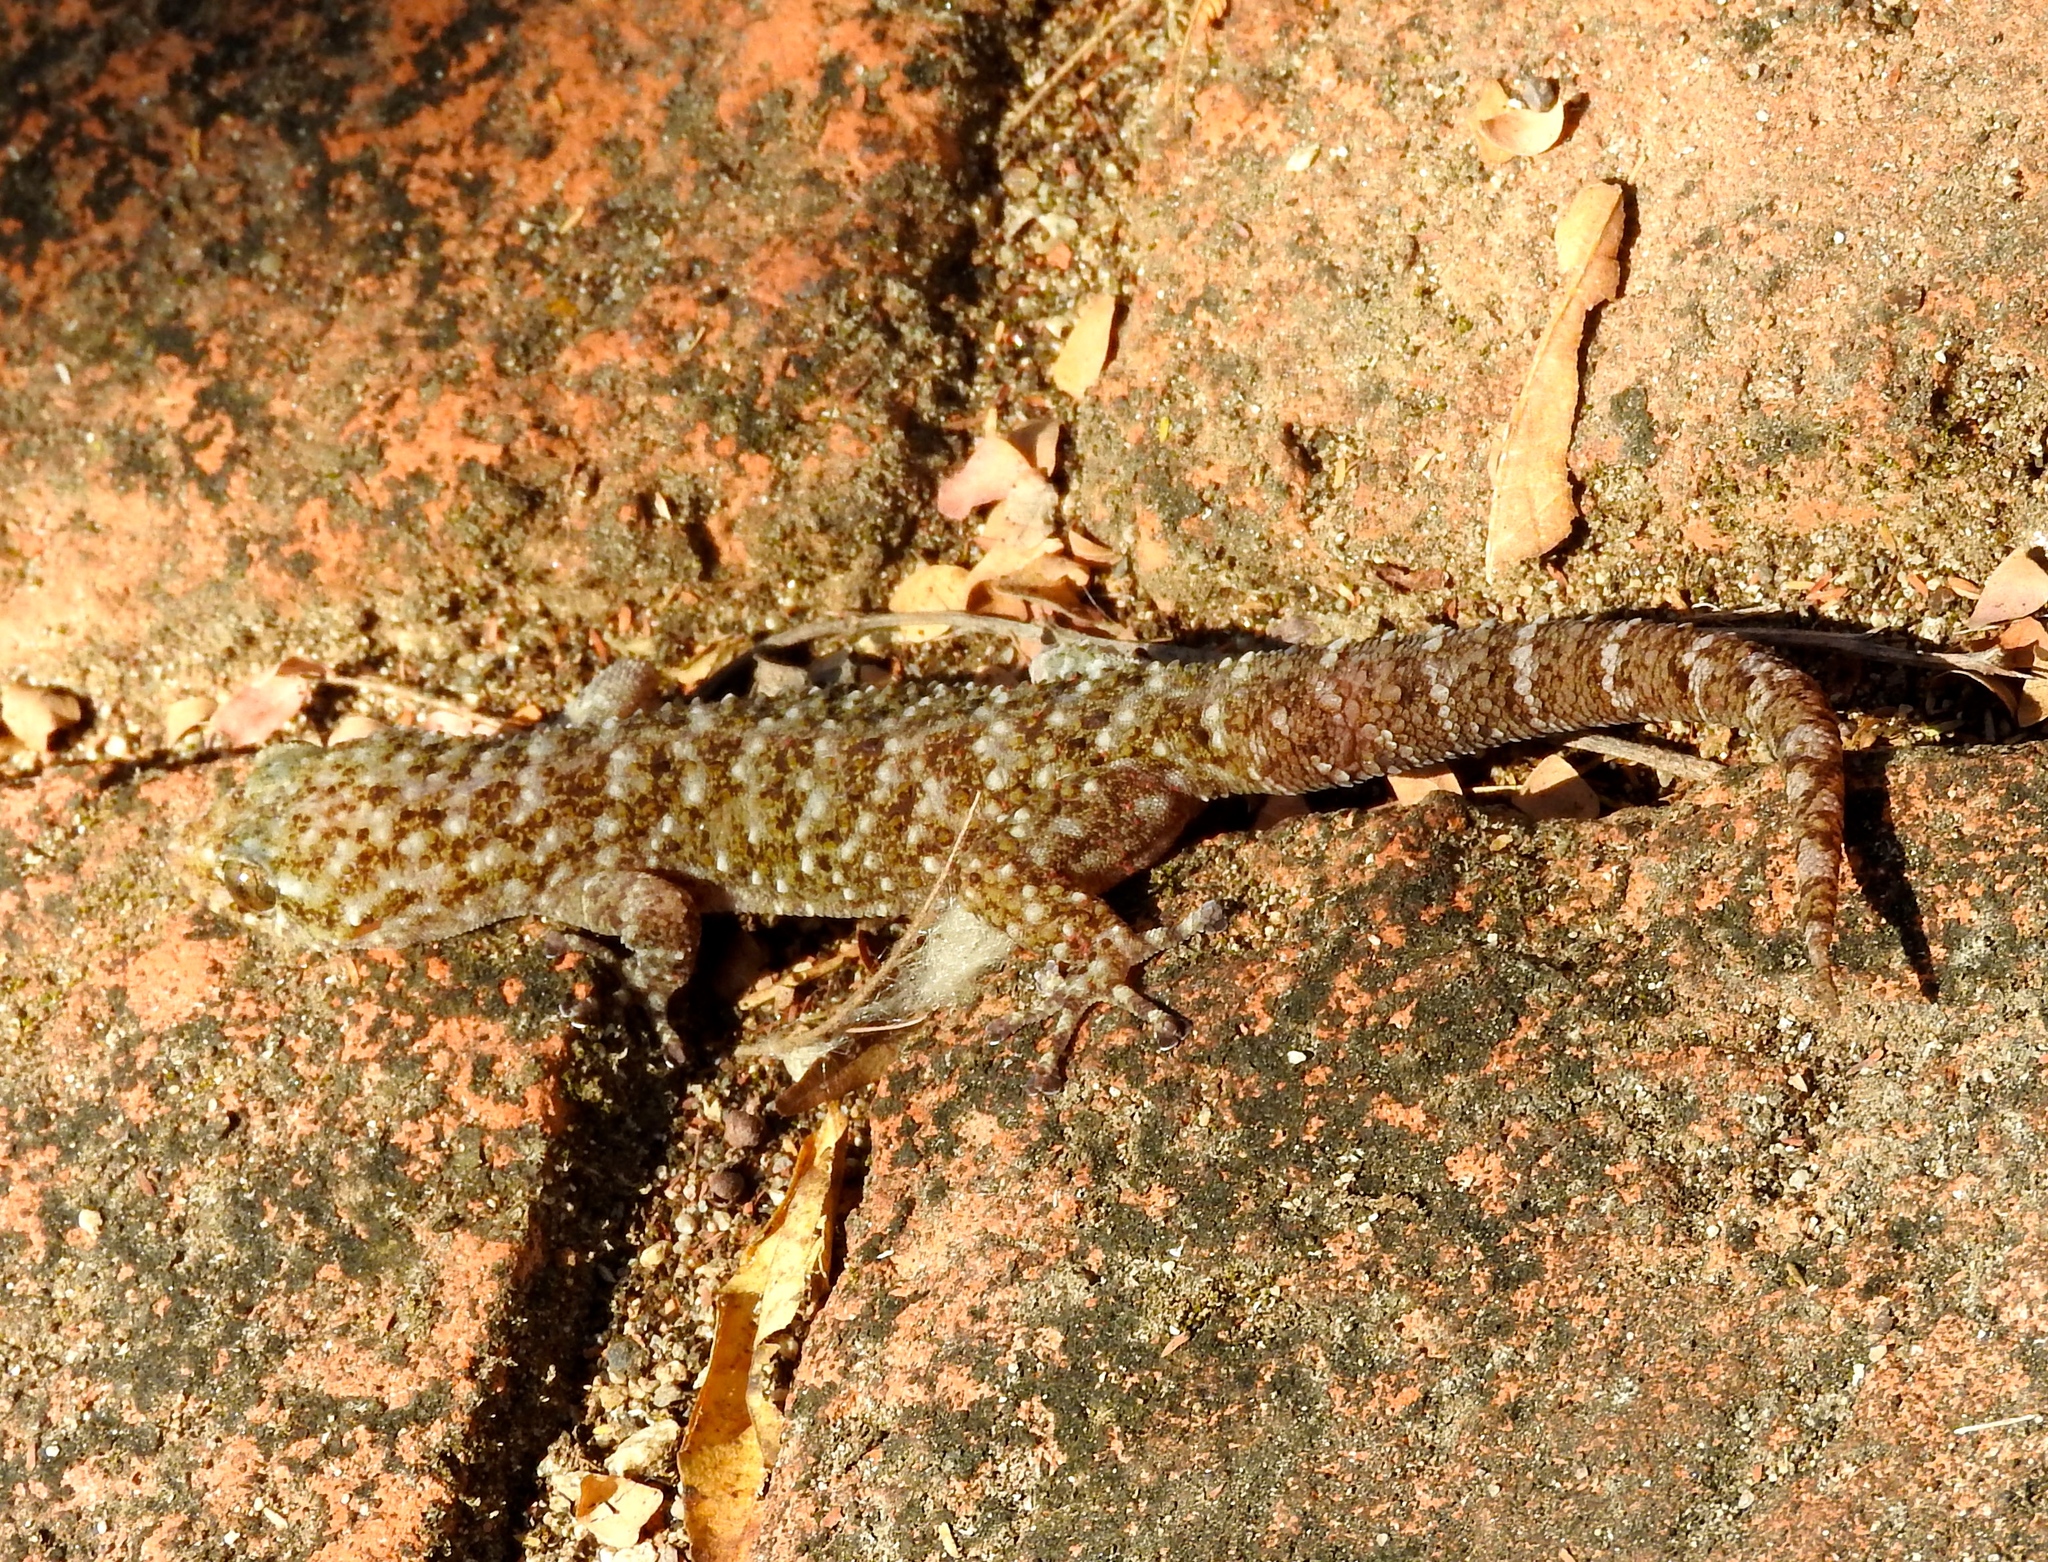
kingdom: Animalia
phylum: Chordata
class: Squamata
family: Phyllodactylidae
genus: Phyllodactylus
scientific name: Phyllodactylus lanei
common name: Lane's leaf-toed gecko
